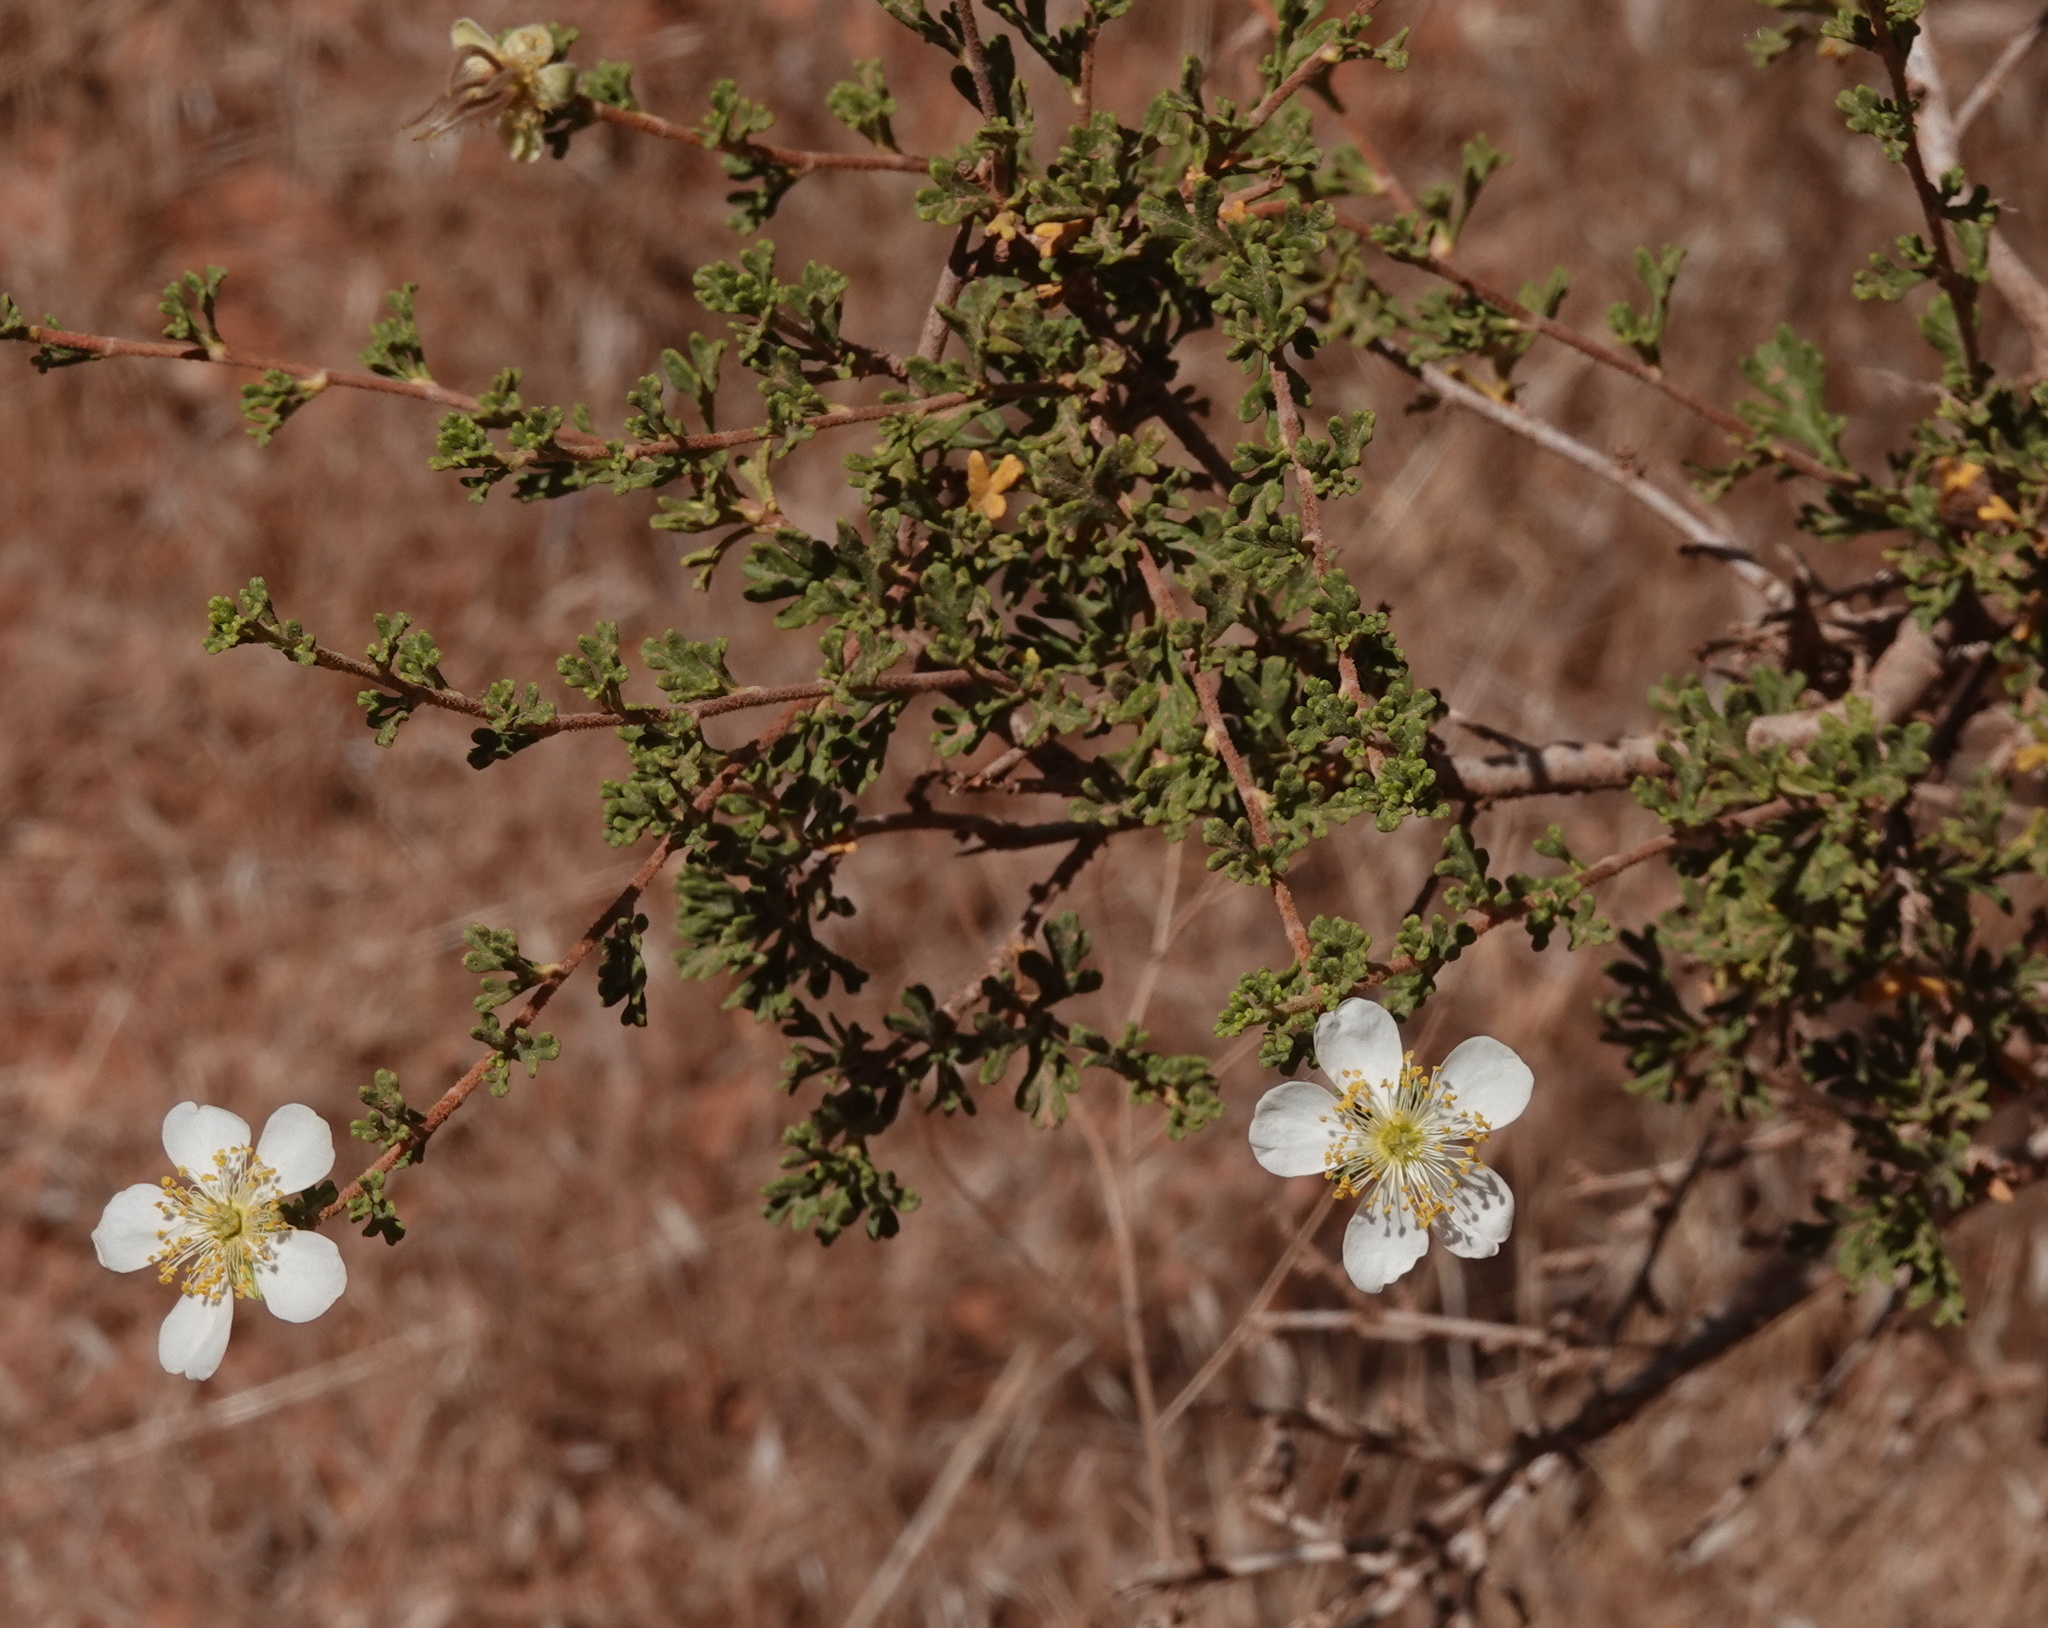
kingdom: Plantae
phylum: Tracheophyta
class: Magnoliopsida
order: Rosales
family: Rosaceae
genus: Purshia
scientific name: Purshia stansburiana
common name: Stansbury's cliffrose
